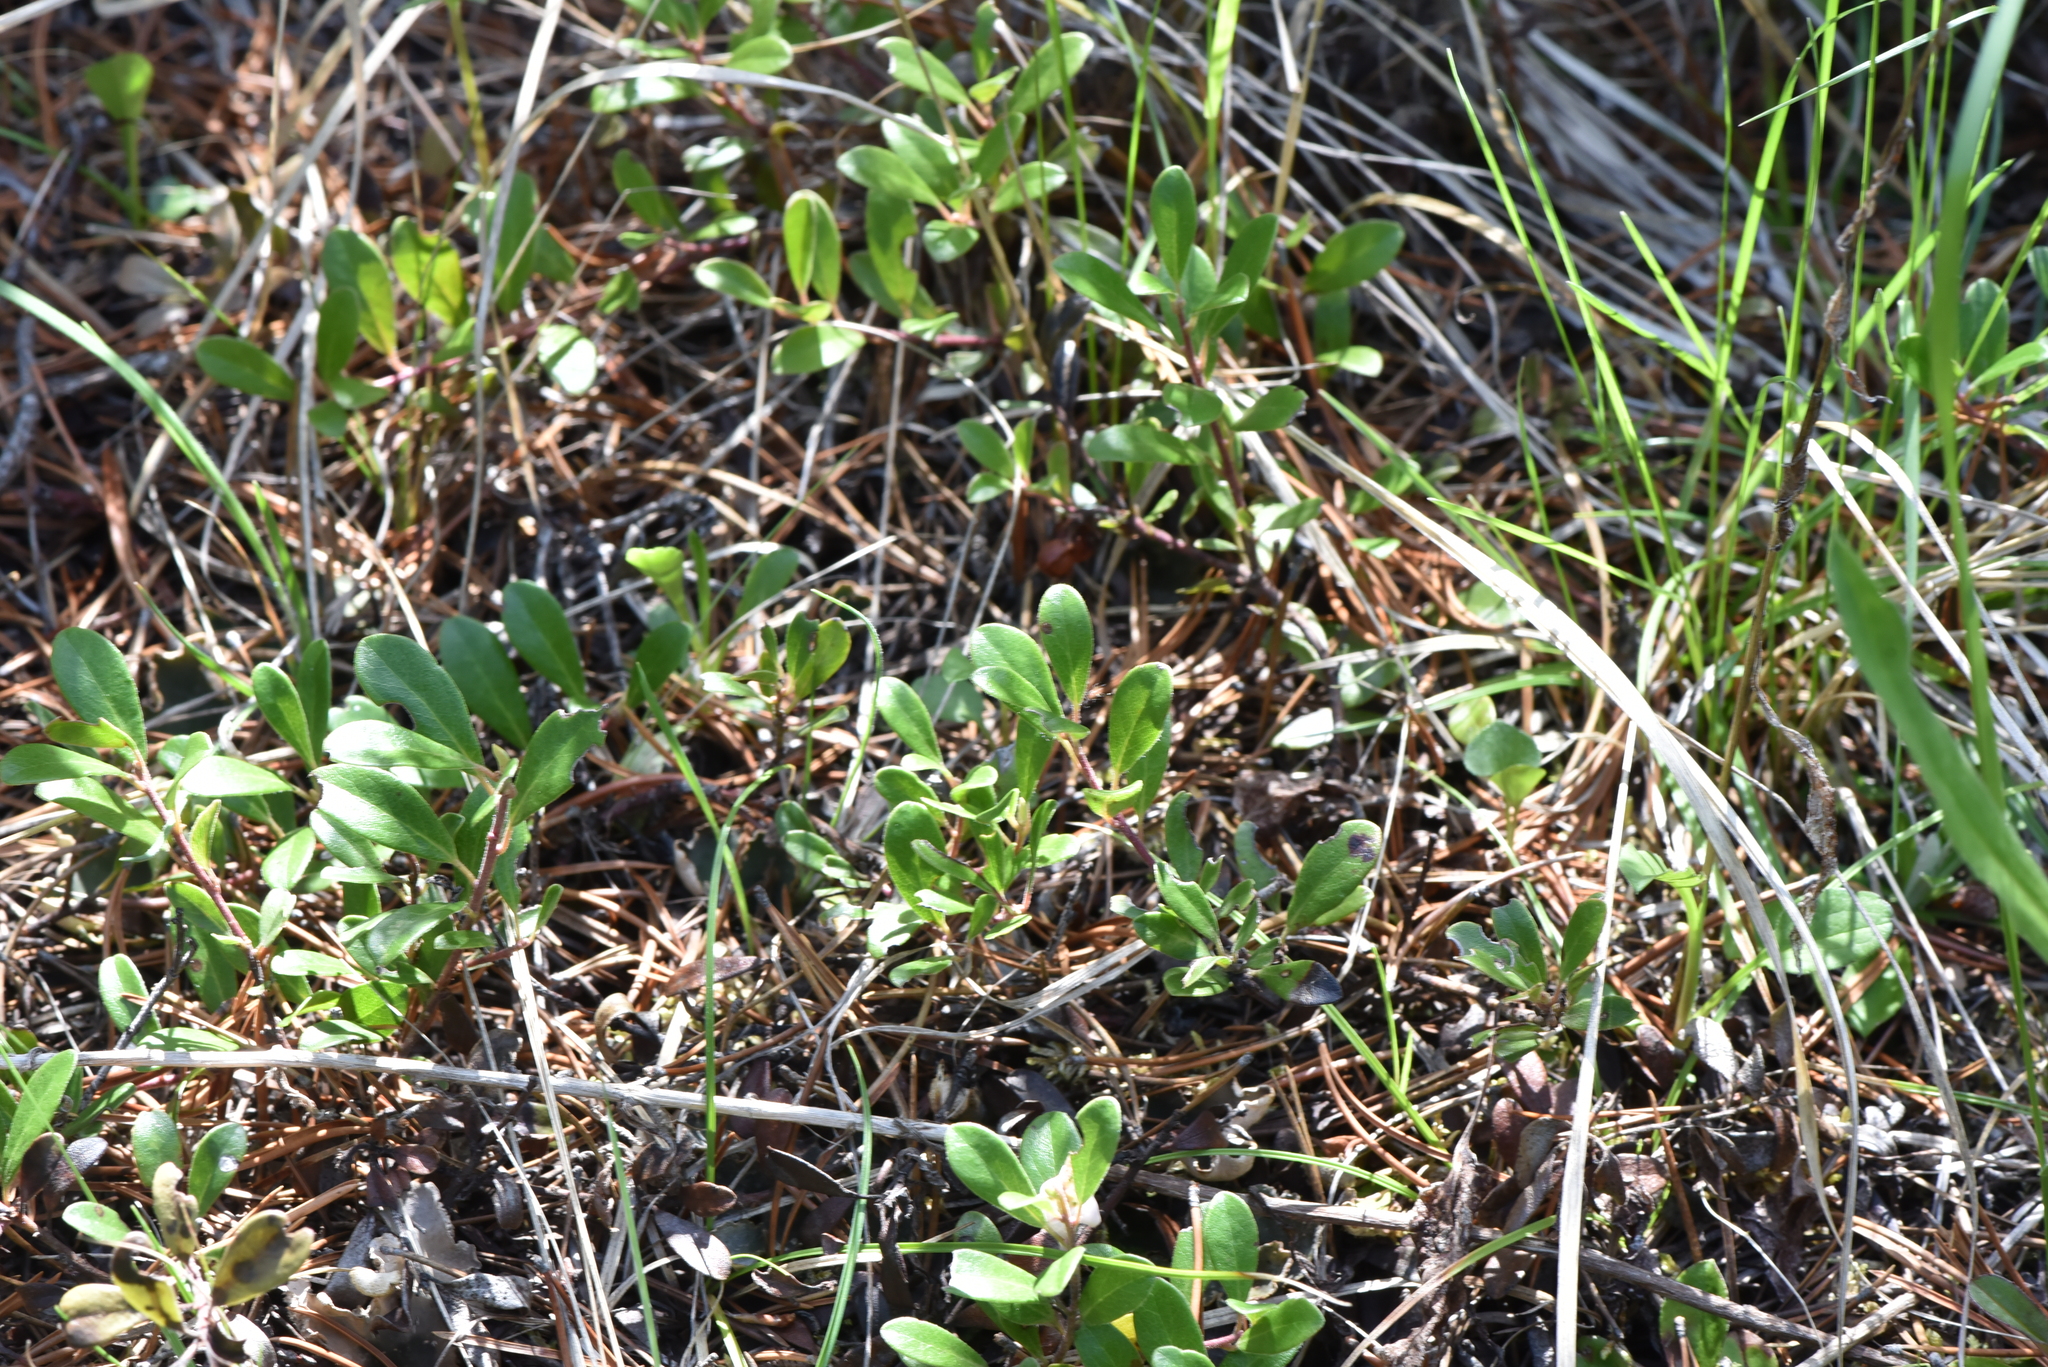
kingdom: Plantae
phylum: Tracheophyta
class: Magnoliopsida
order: Ericales
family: Ericaceae
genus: Arctostaphylos
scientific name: Arctostaphylos uva-ursi
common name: Bearberry
